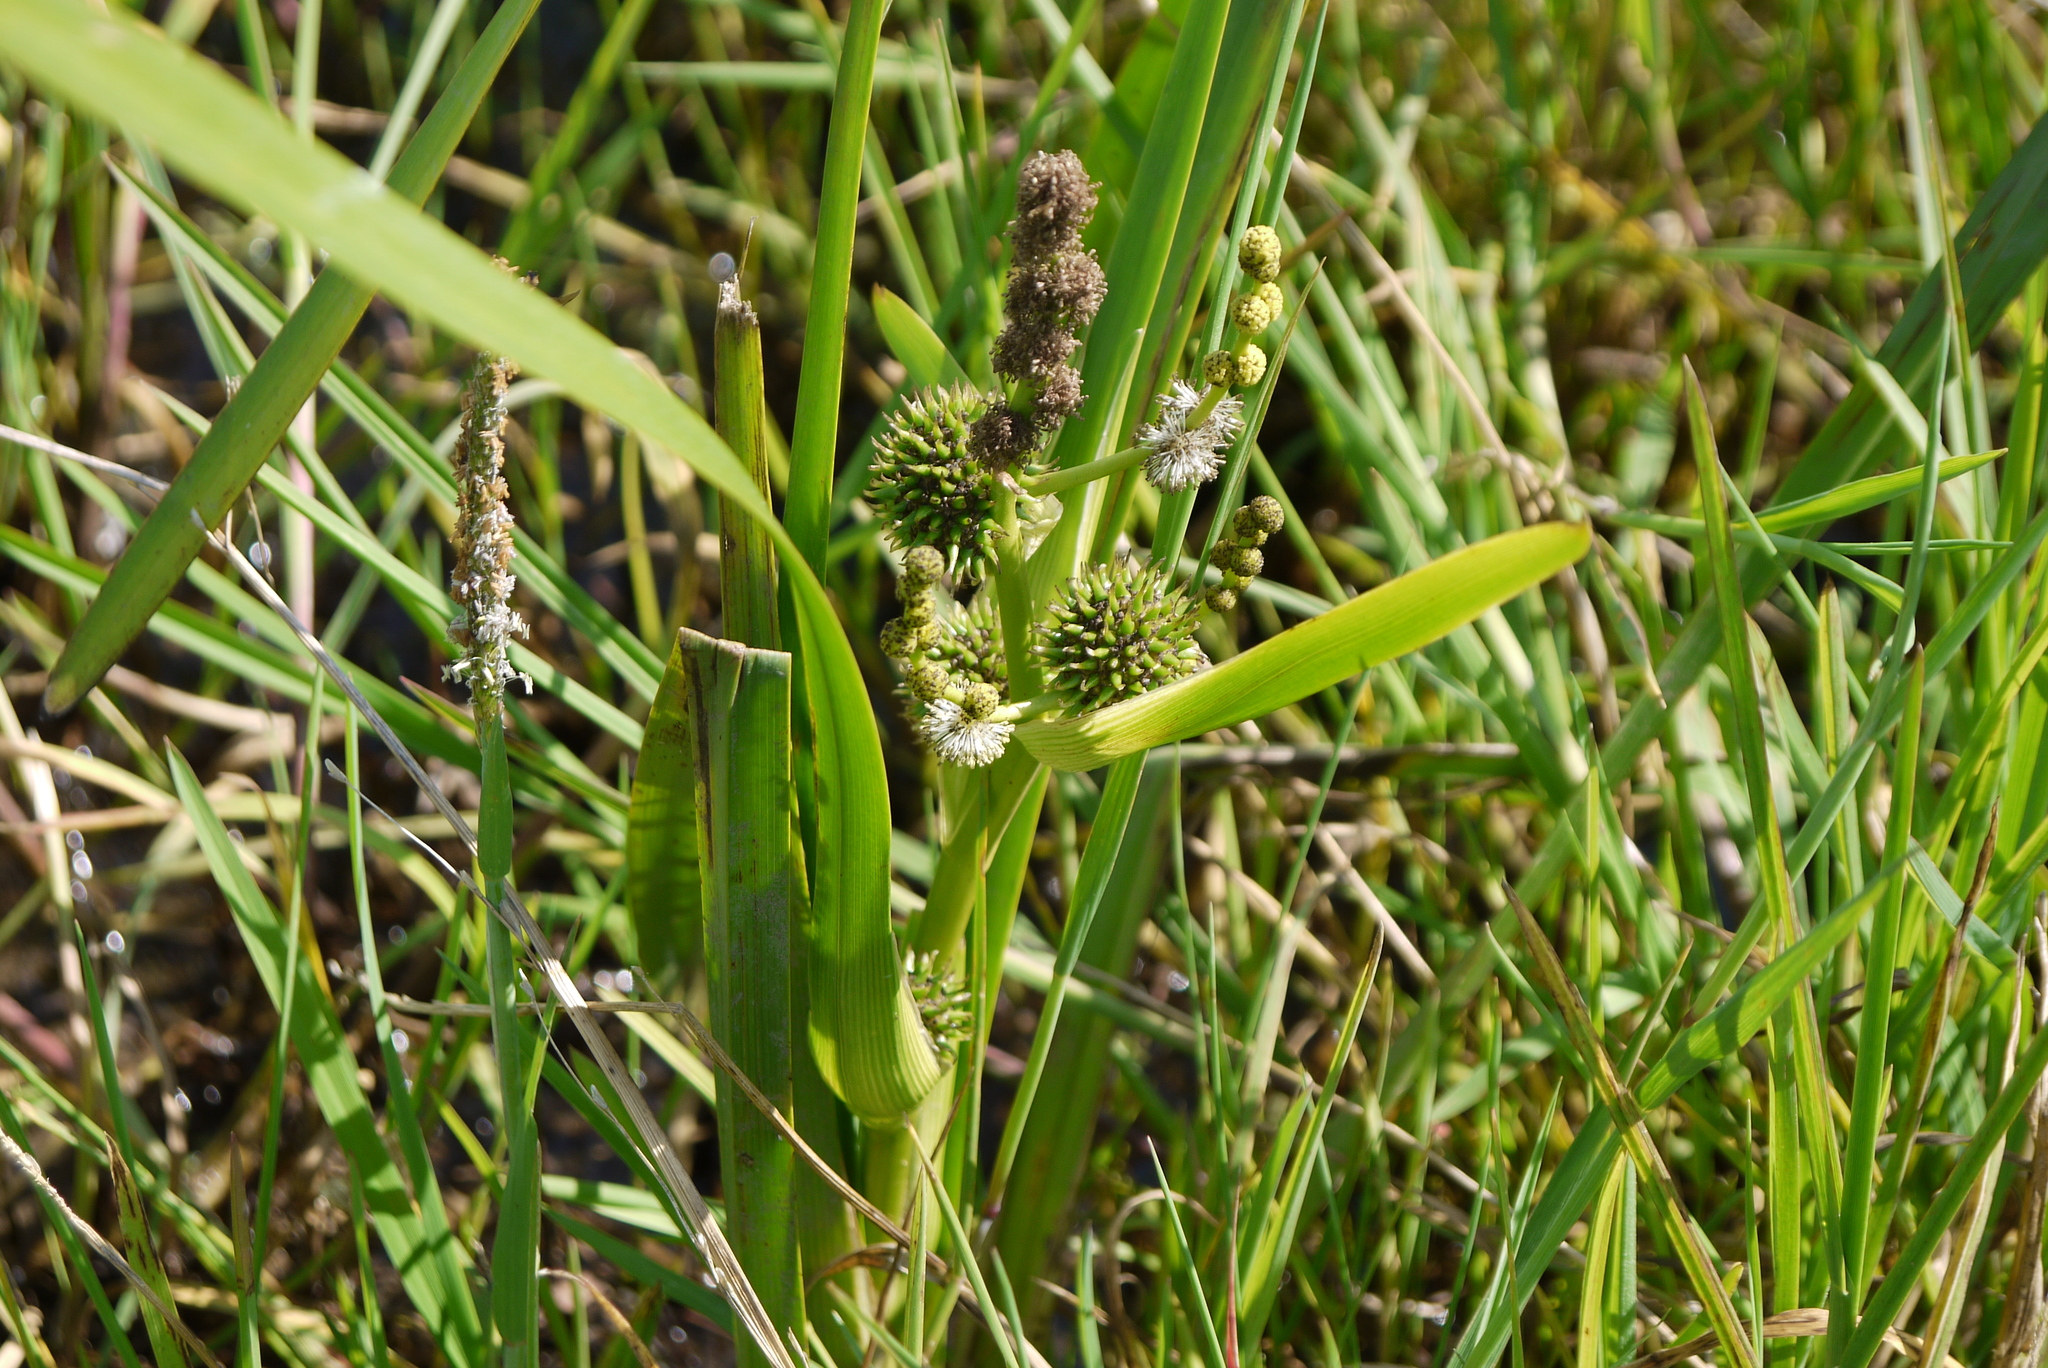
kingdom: Plantae
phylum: Tracheophyta
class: Liliopsida
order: Poales
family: Typhaceae
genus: Sparganium
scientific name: Sparganium erectum
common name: Branched bur-reed
